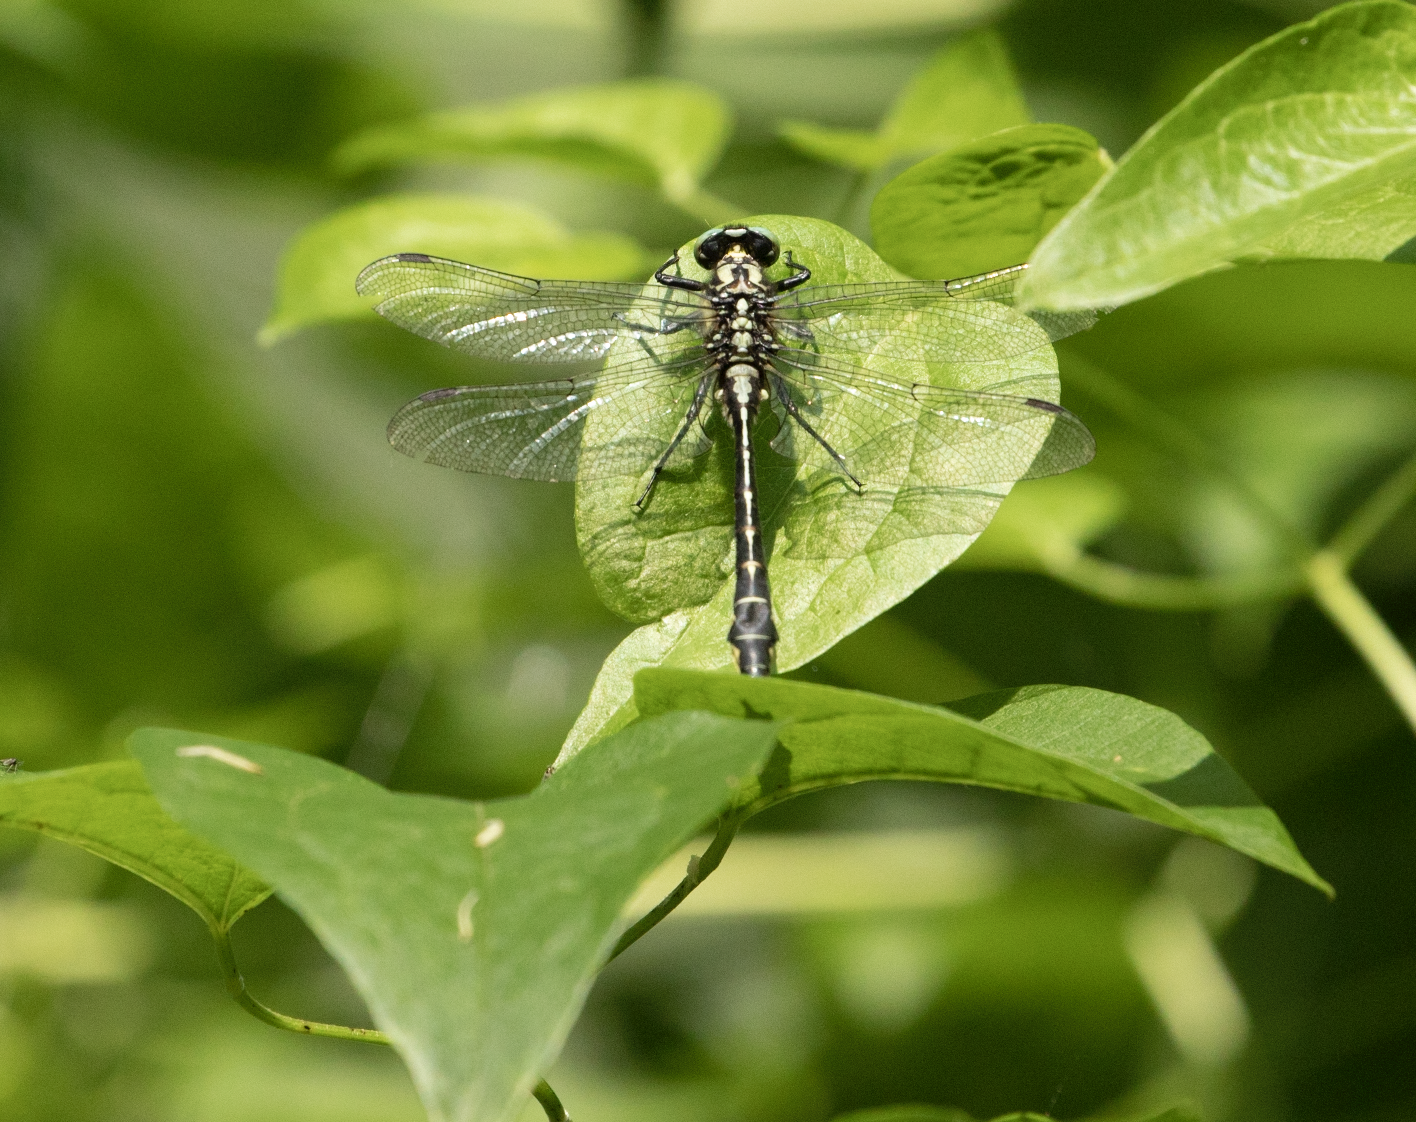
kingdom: Animalia
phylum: Arthropoda
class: Insecta
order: Odonata
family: Gomphidae
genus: Gomphus
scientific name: Gomphus vulgatissimus
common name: Club-tailed dragonfly
